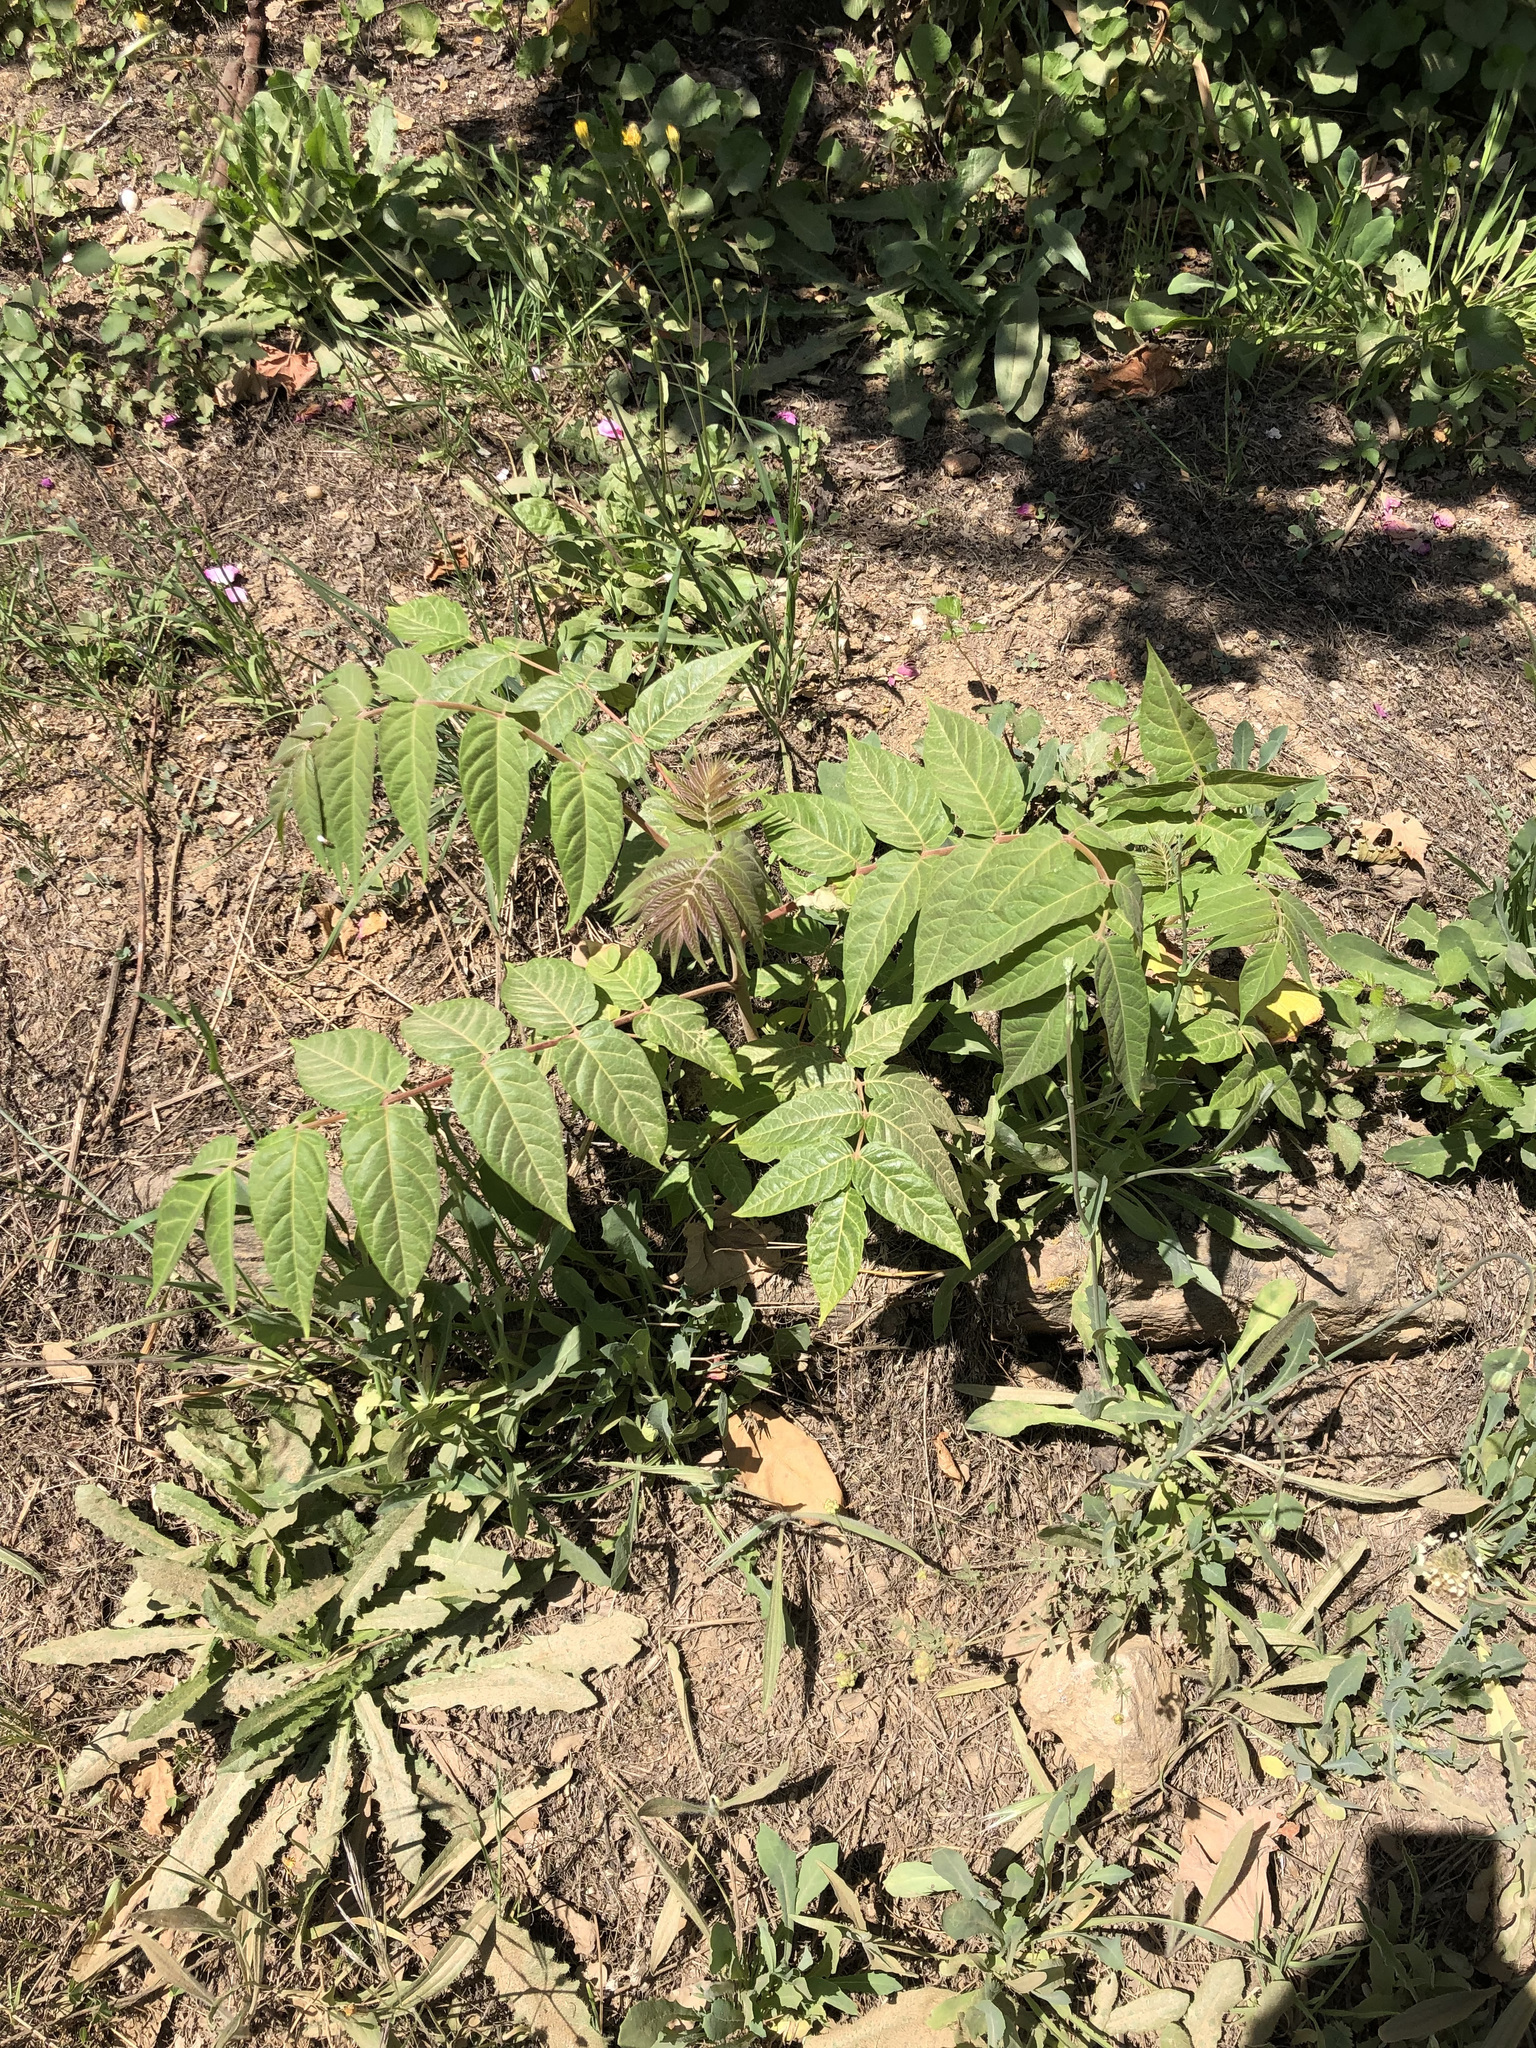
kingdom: Plantae
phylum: Tracheophyta
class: Magnoliopsida
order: Sapindales
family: Simaroubaceae
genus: Ailanthus
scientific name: Ailanthus altissima
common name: Tree-of-heaven
